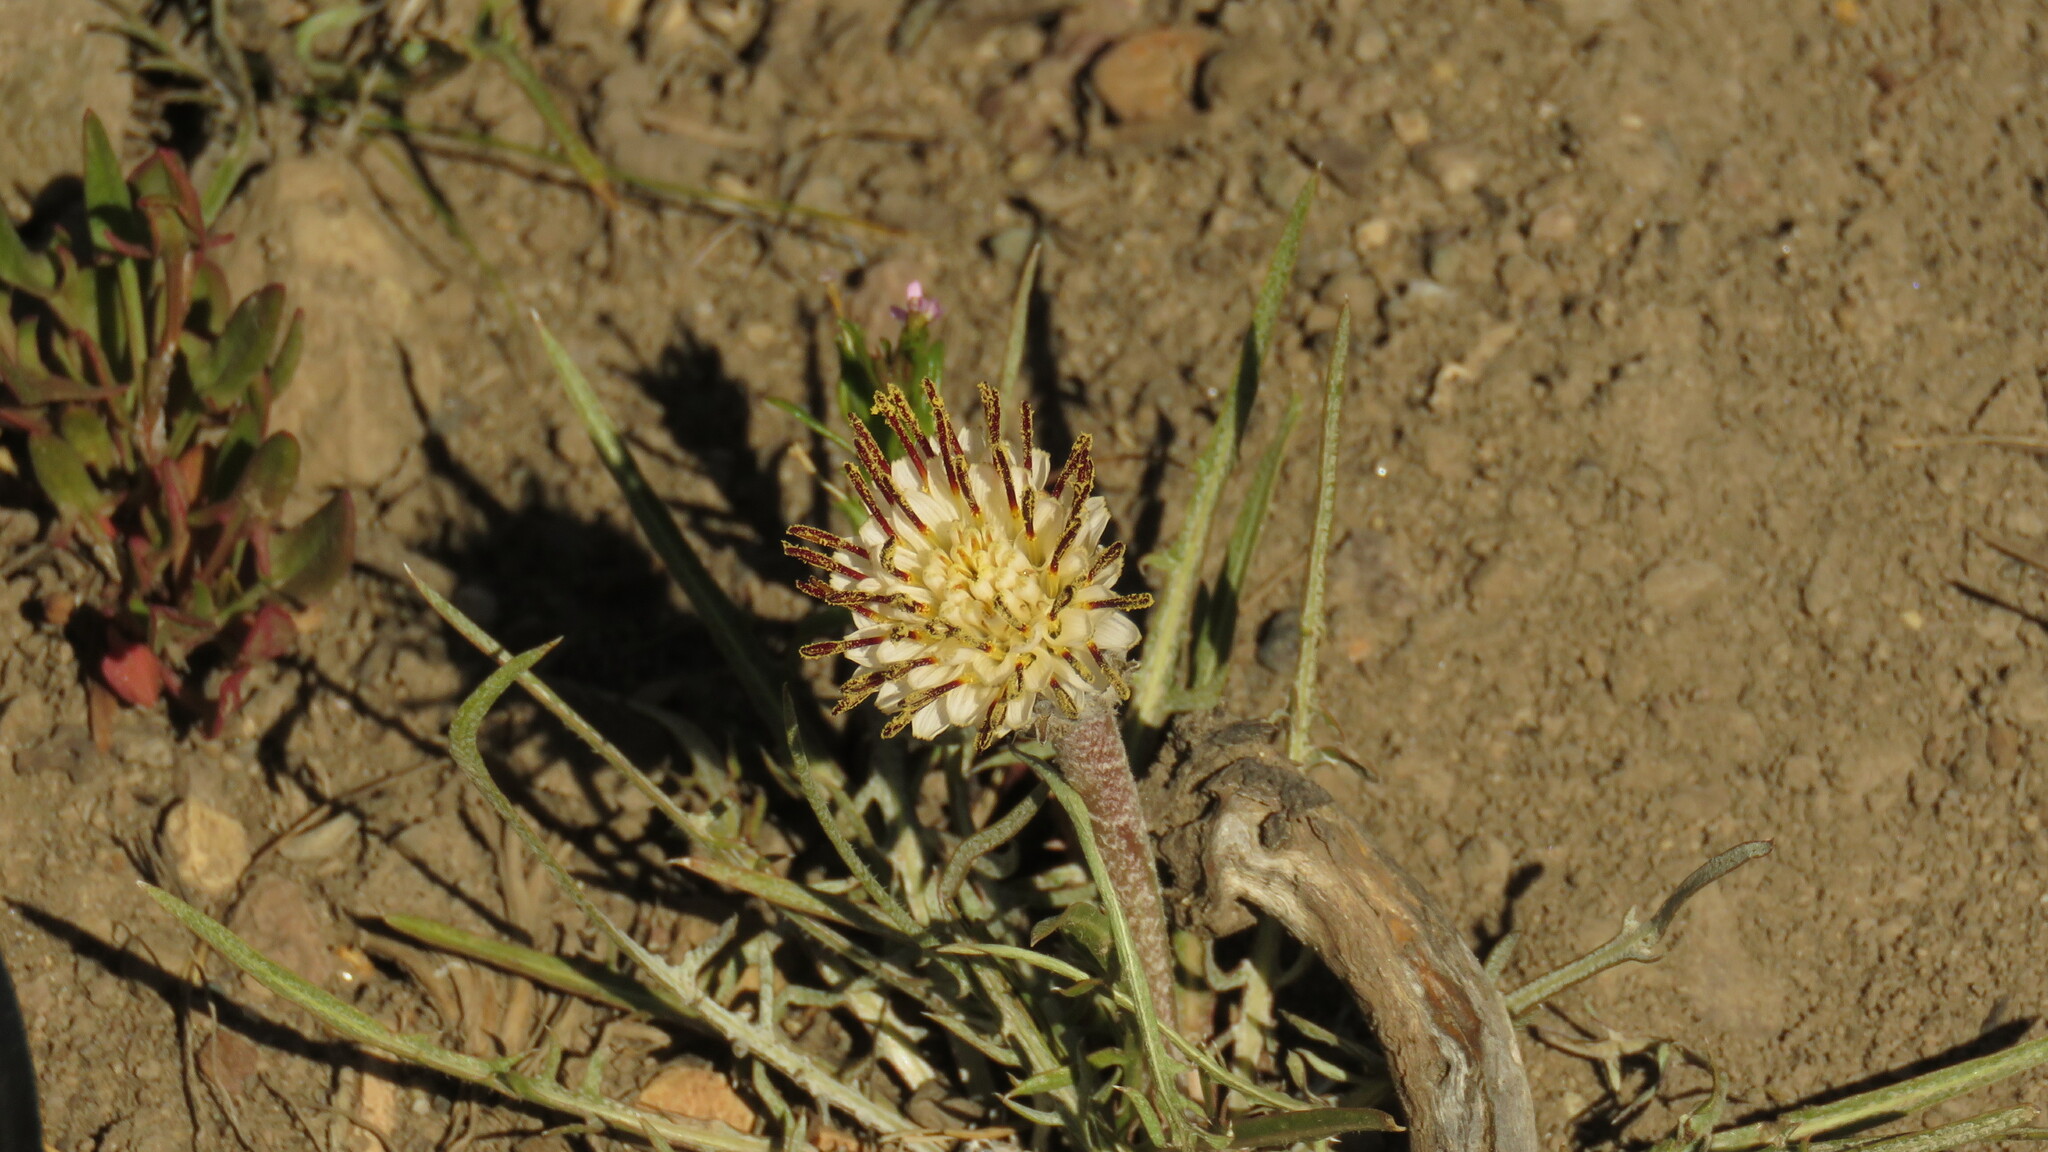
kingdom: Plantae
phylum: Tracheophyta
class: Magnoliopsida
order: Asterales
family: Asteraceae
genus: Hypochaeris
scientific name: Hypochaeris incana
